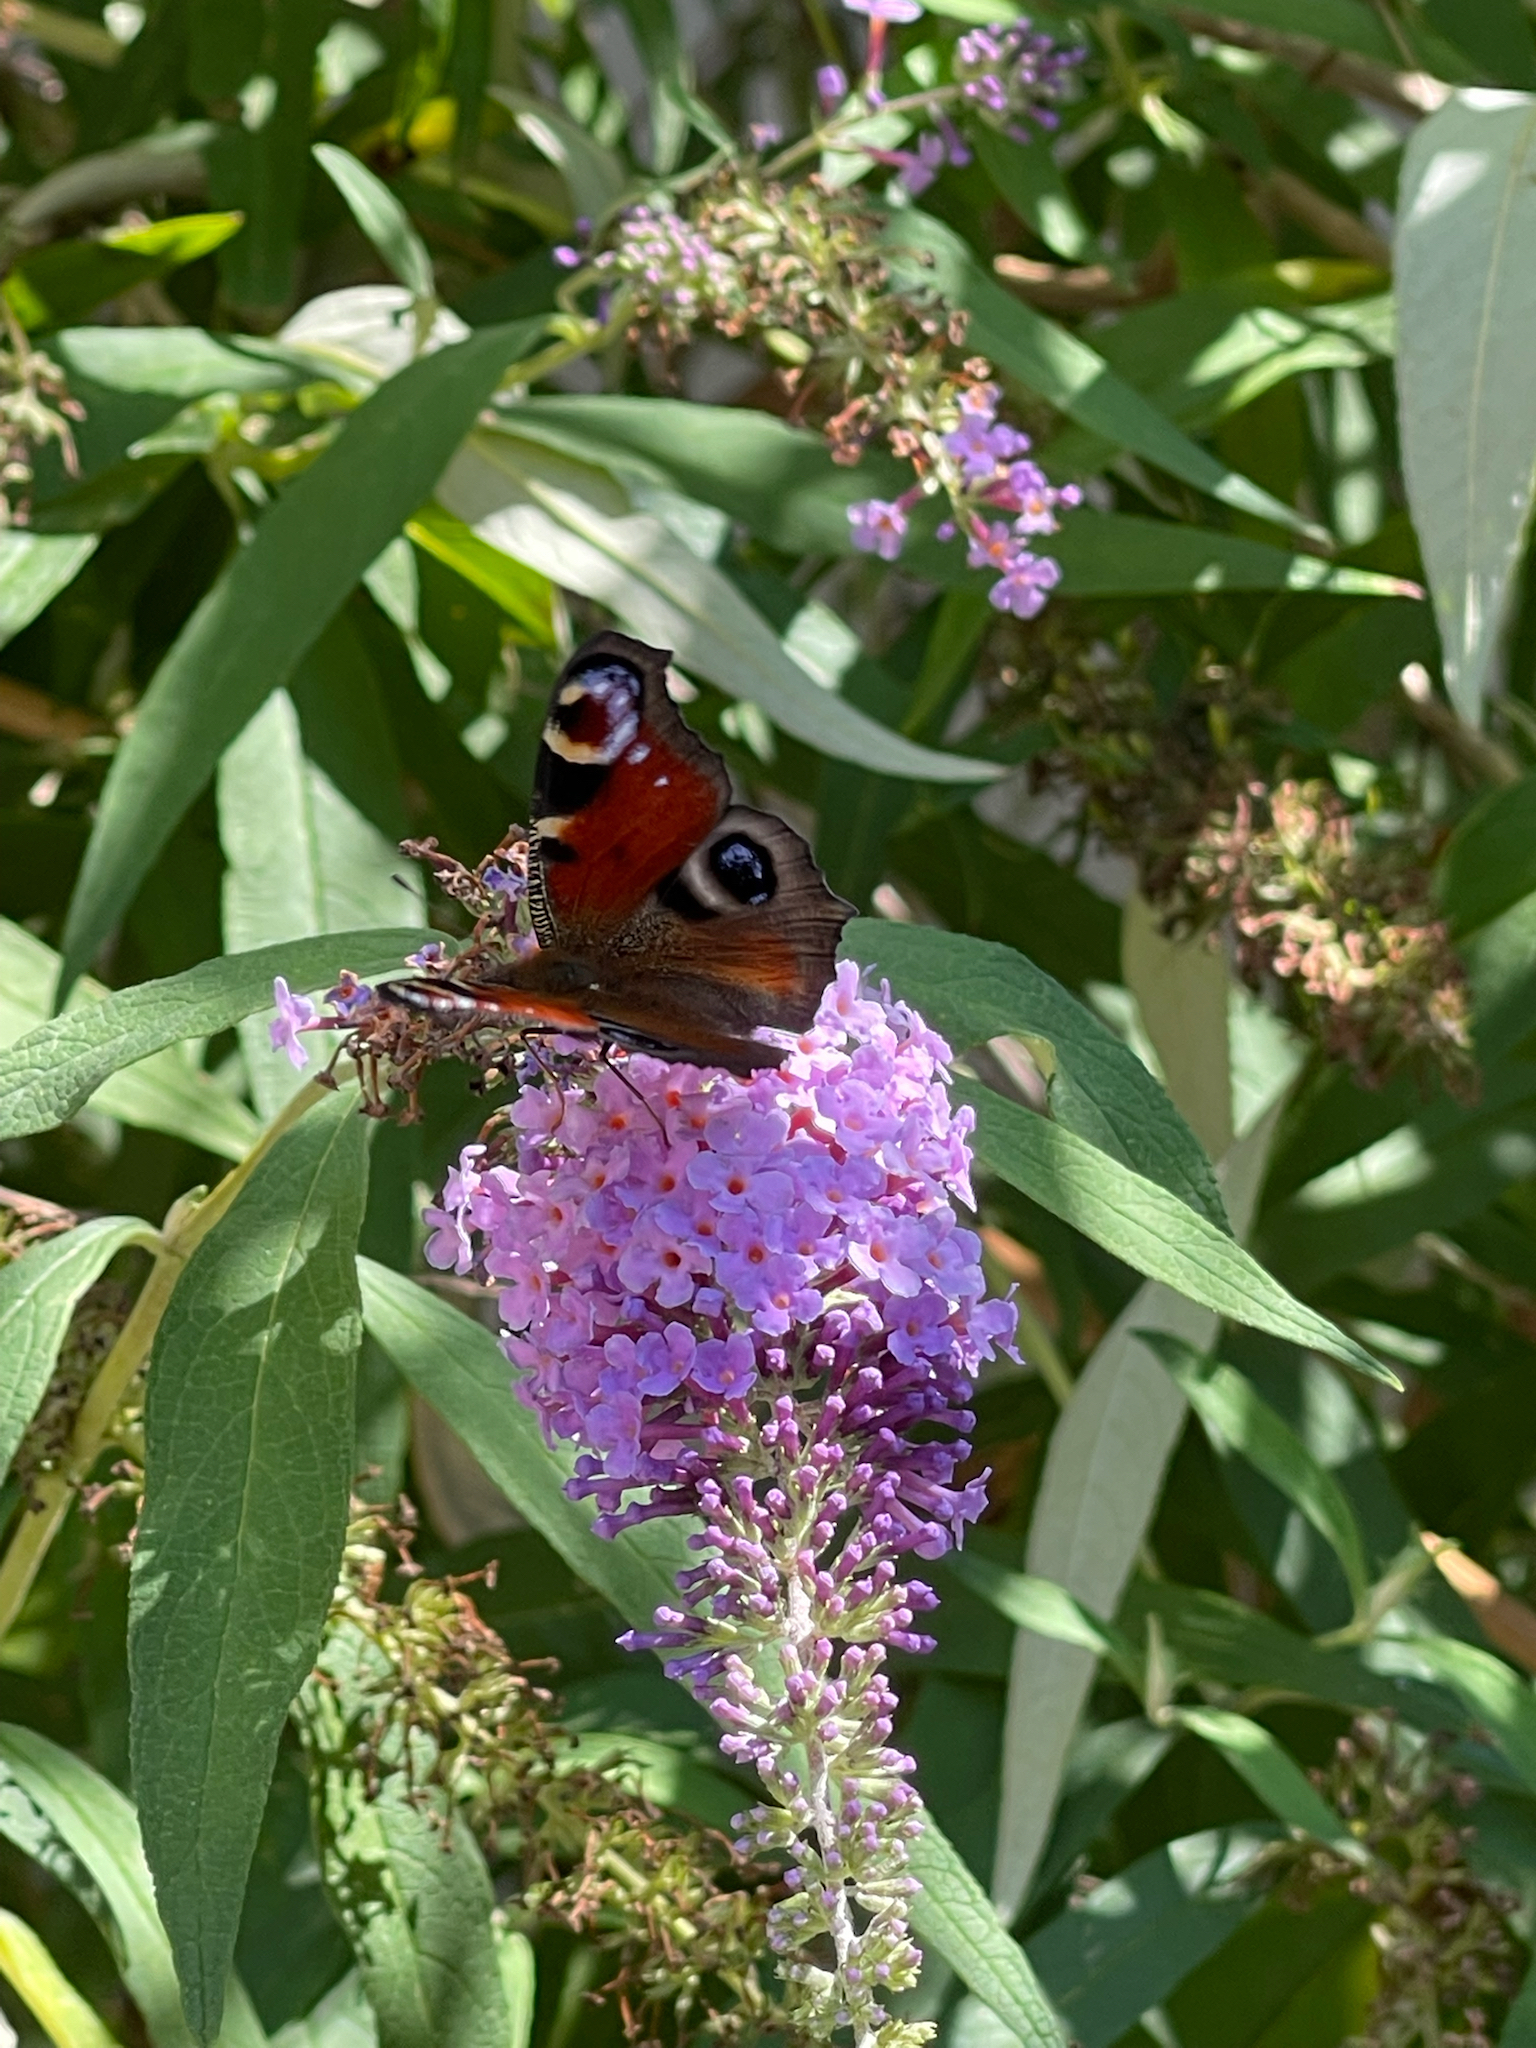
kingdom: Animalia
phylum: Arthropoda
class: Insecta
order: Lepidoptera
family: Nymphalidae
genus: Aglais
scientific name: Aglais io
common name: Peacock
